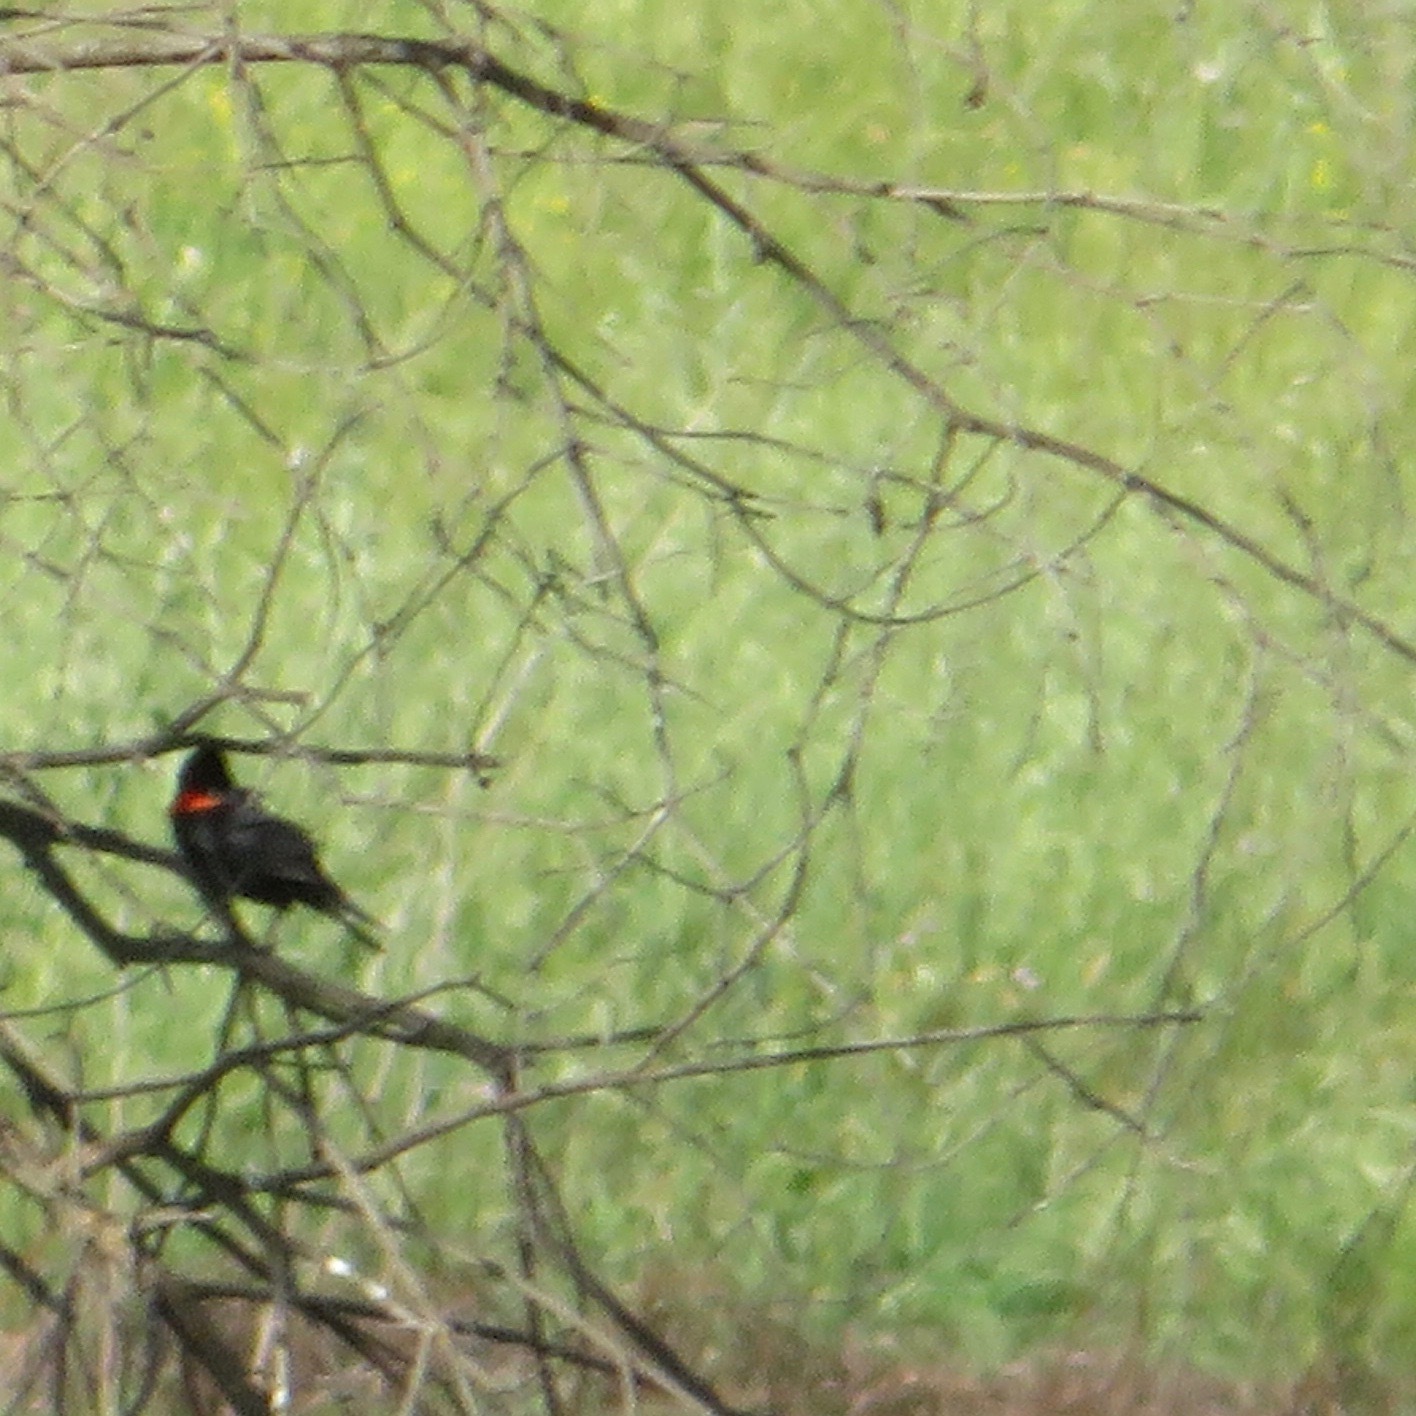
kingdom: Animalia
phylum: Chordata
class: Aves
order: Passeriformes
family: Icteridae
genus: Agelaius
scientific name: Agelaius phoeniceus
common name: Red-winged blackbird
